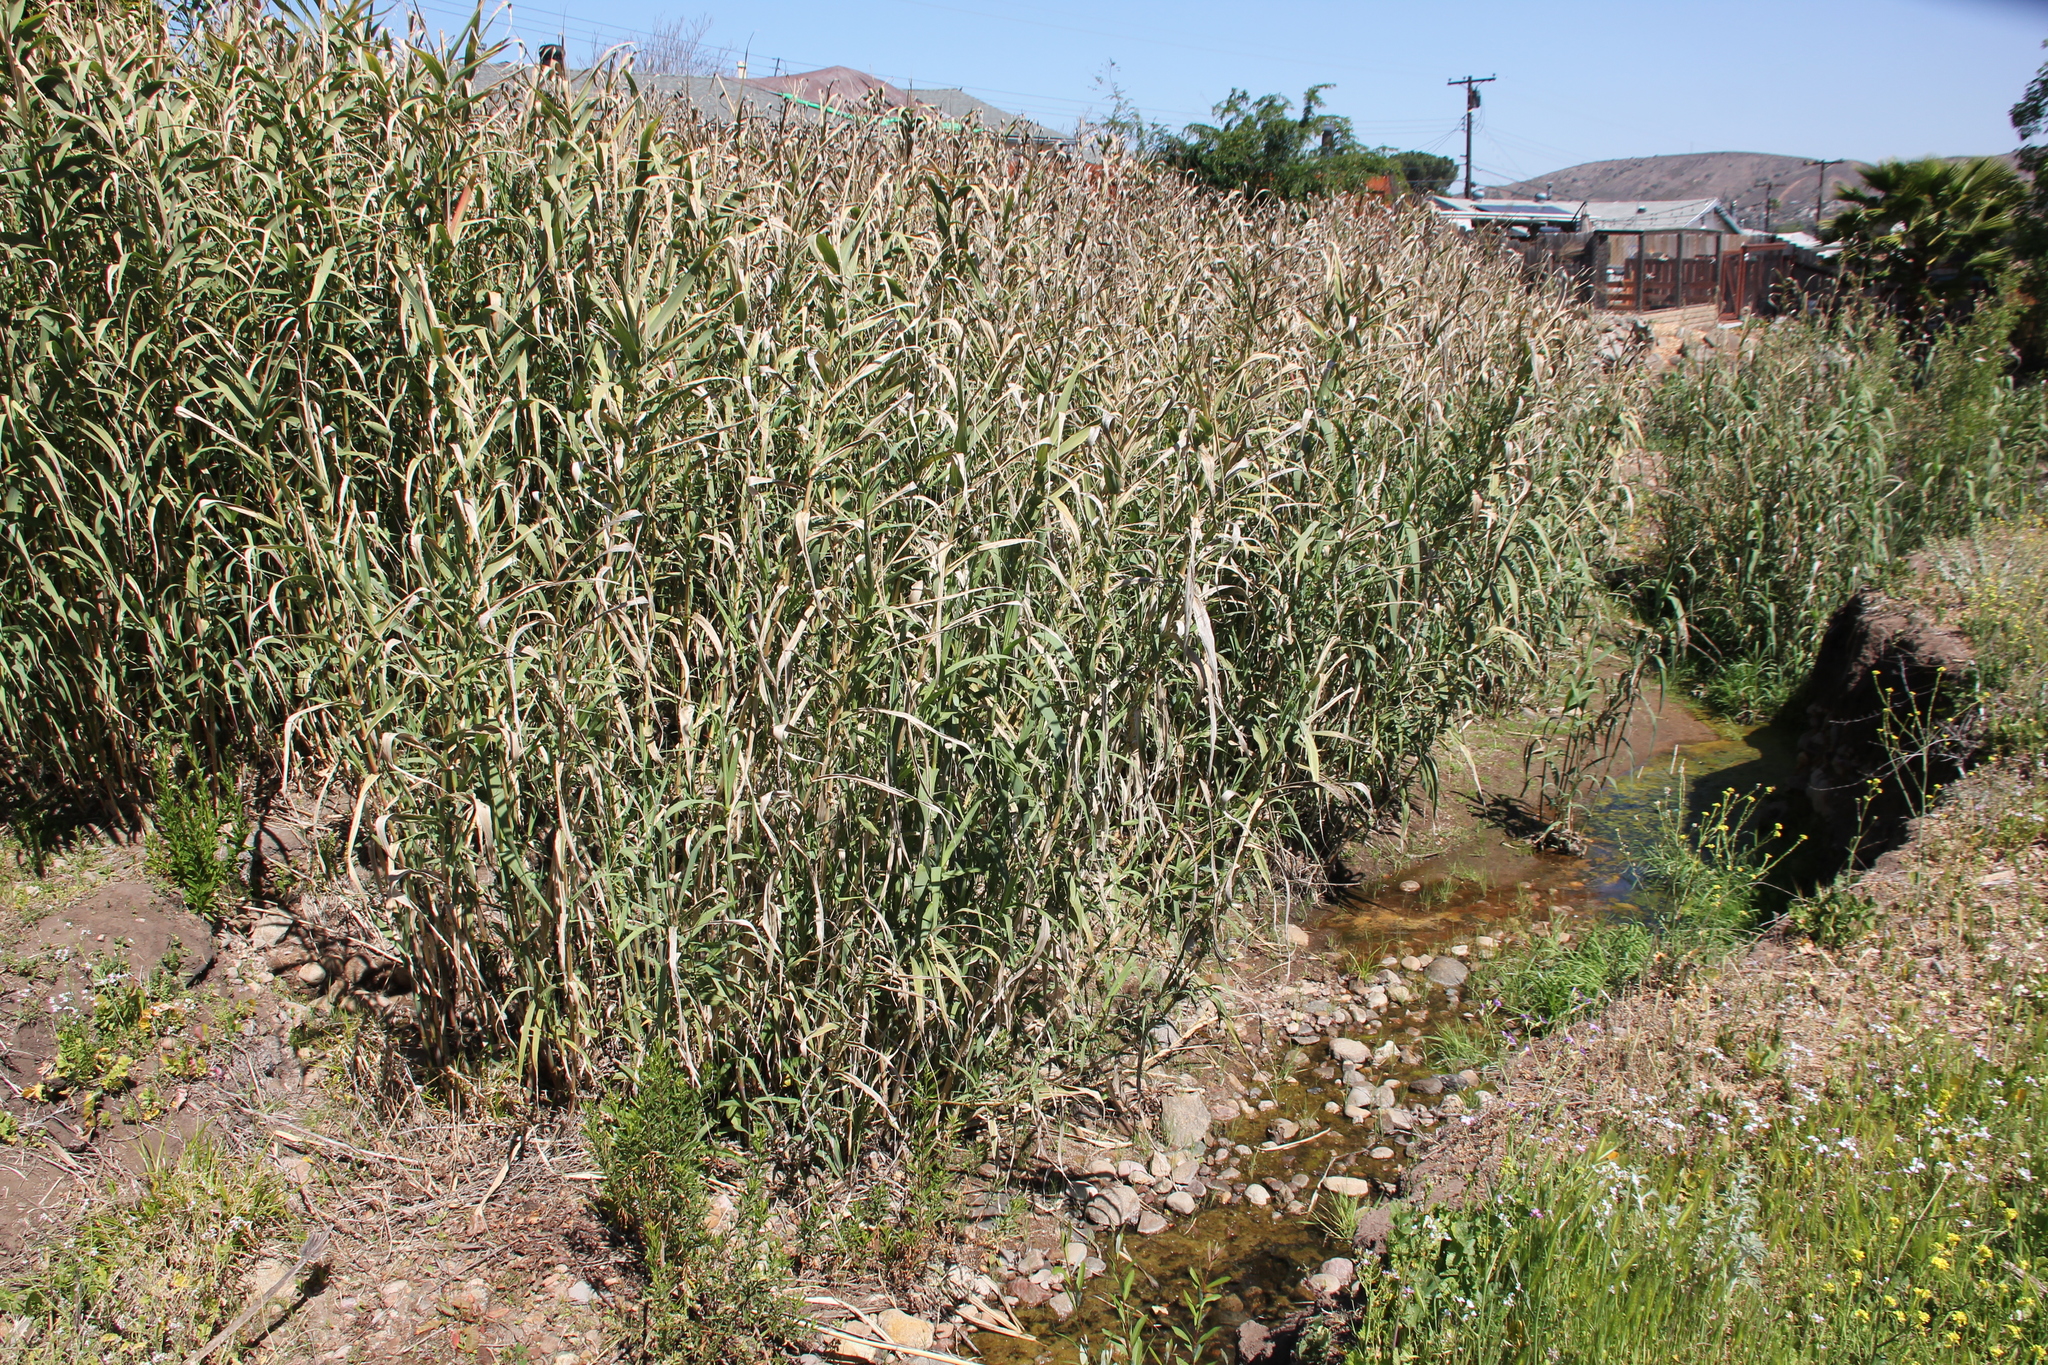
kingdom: Plantae
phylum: Tracheophyta
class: Liliopsida
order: Poales
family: Poaceae
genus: Arundo
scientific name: Arundo donax
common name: Giant reed
